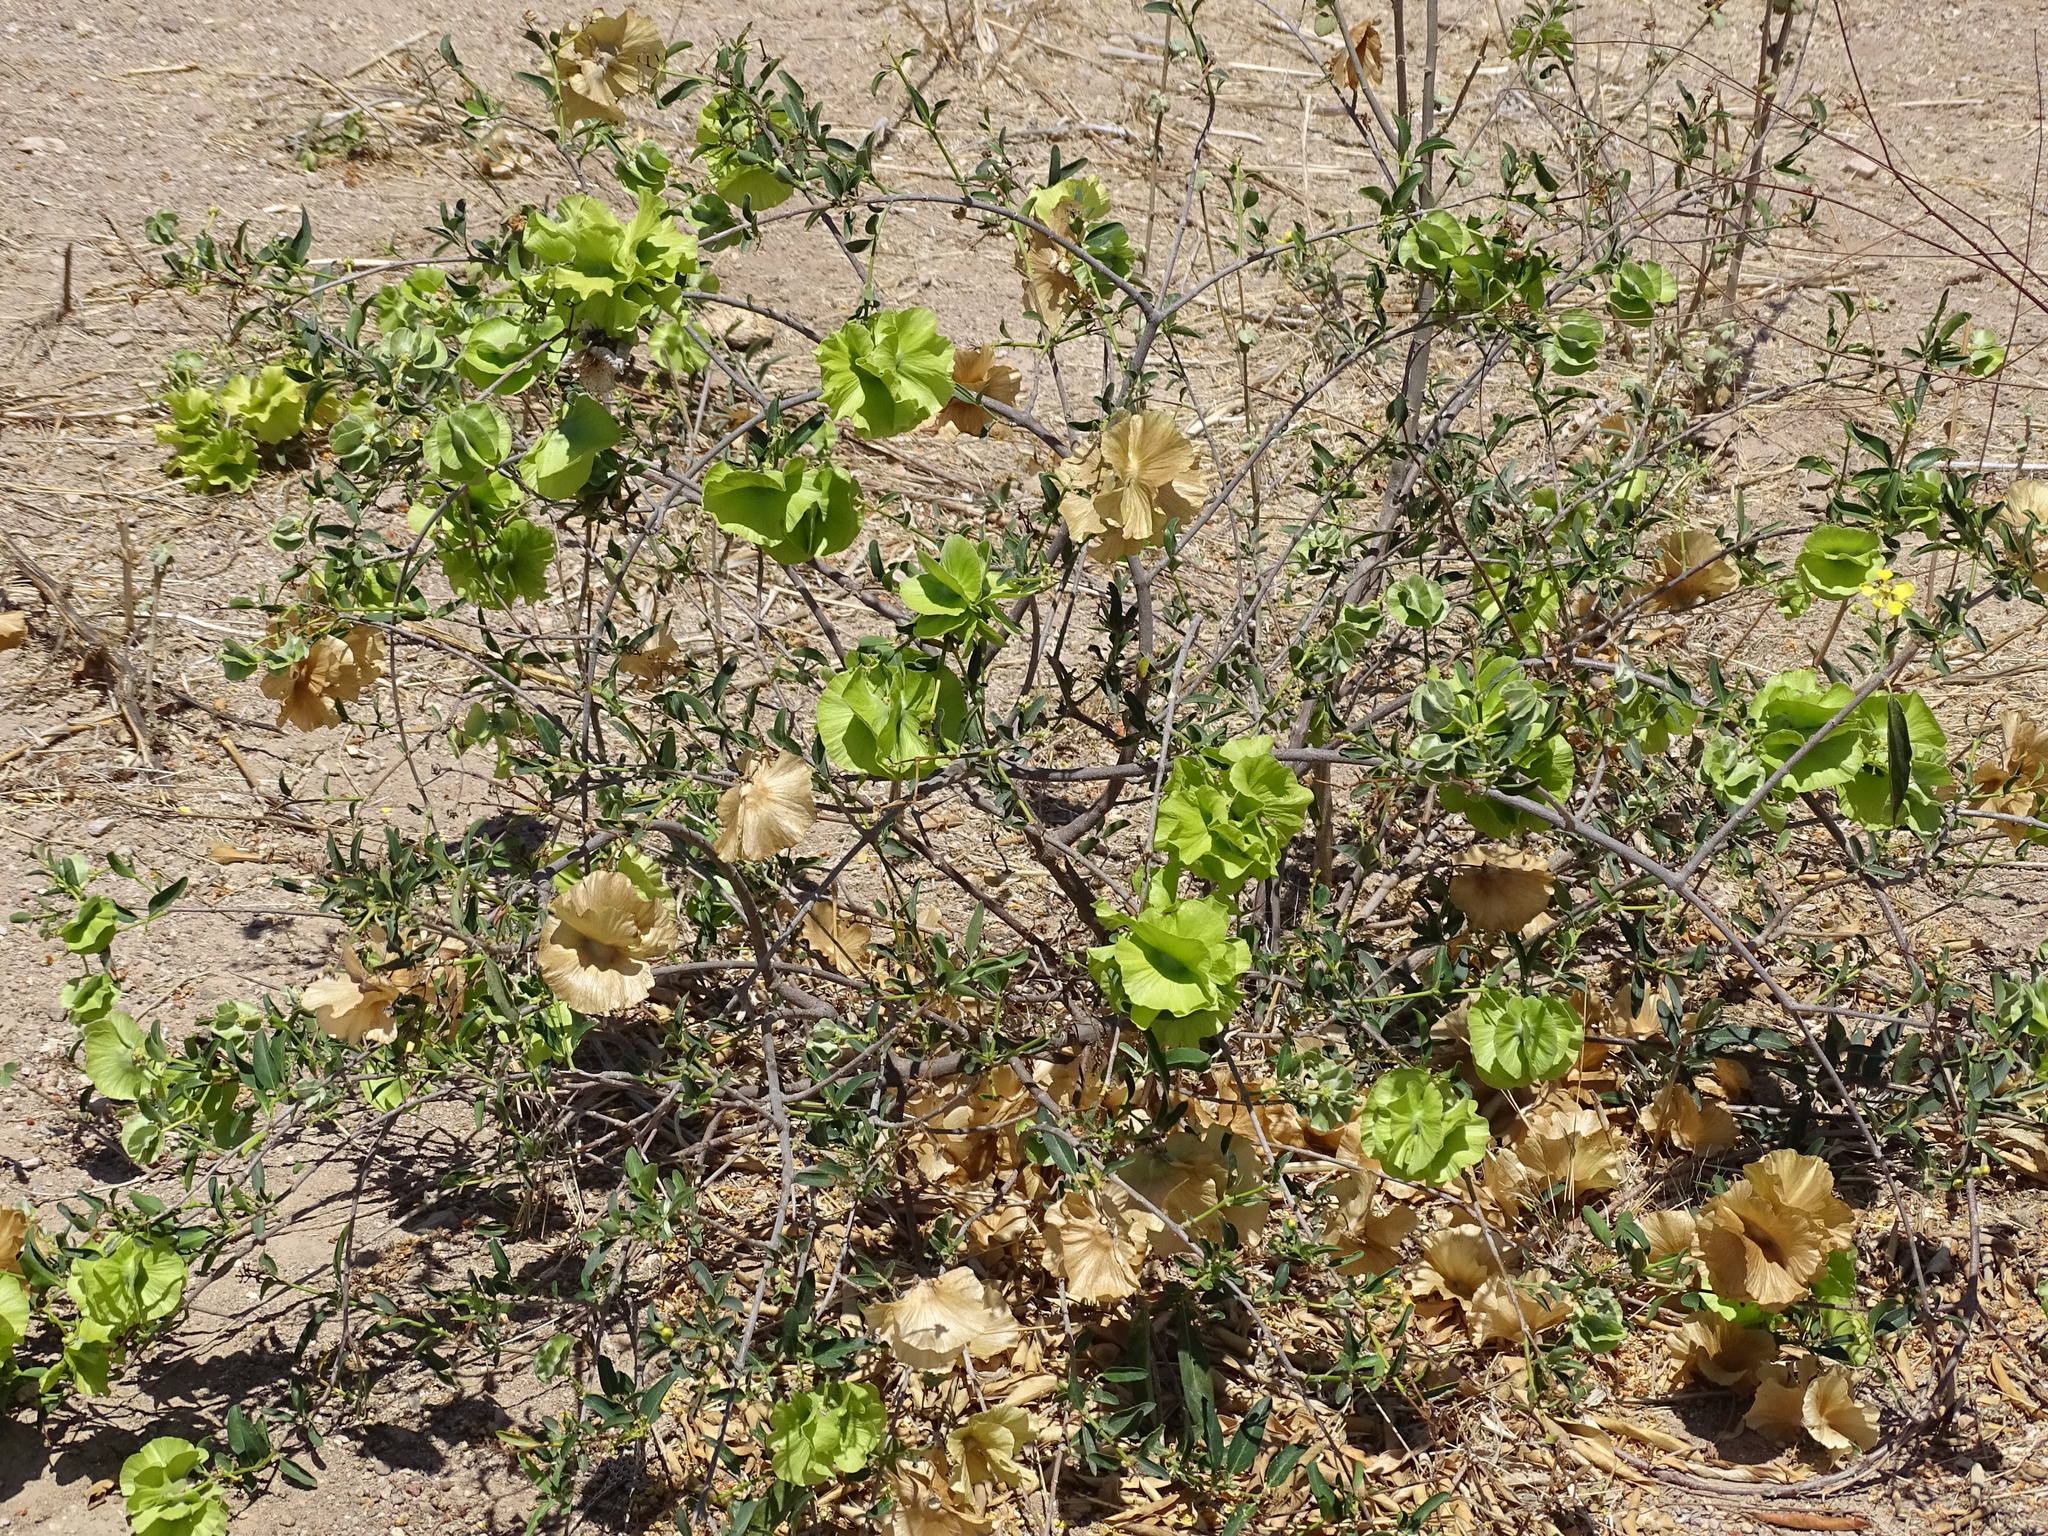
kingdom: Plantae
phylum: Tracheophyta
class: Magnoliopsida
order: Malpighiales
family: Malpighiaceae
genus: Callaeum
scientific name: Callaeum macropterum
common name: Mexican butterfly-vine
